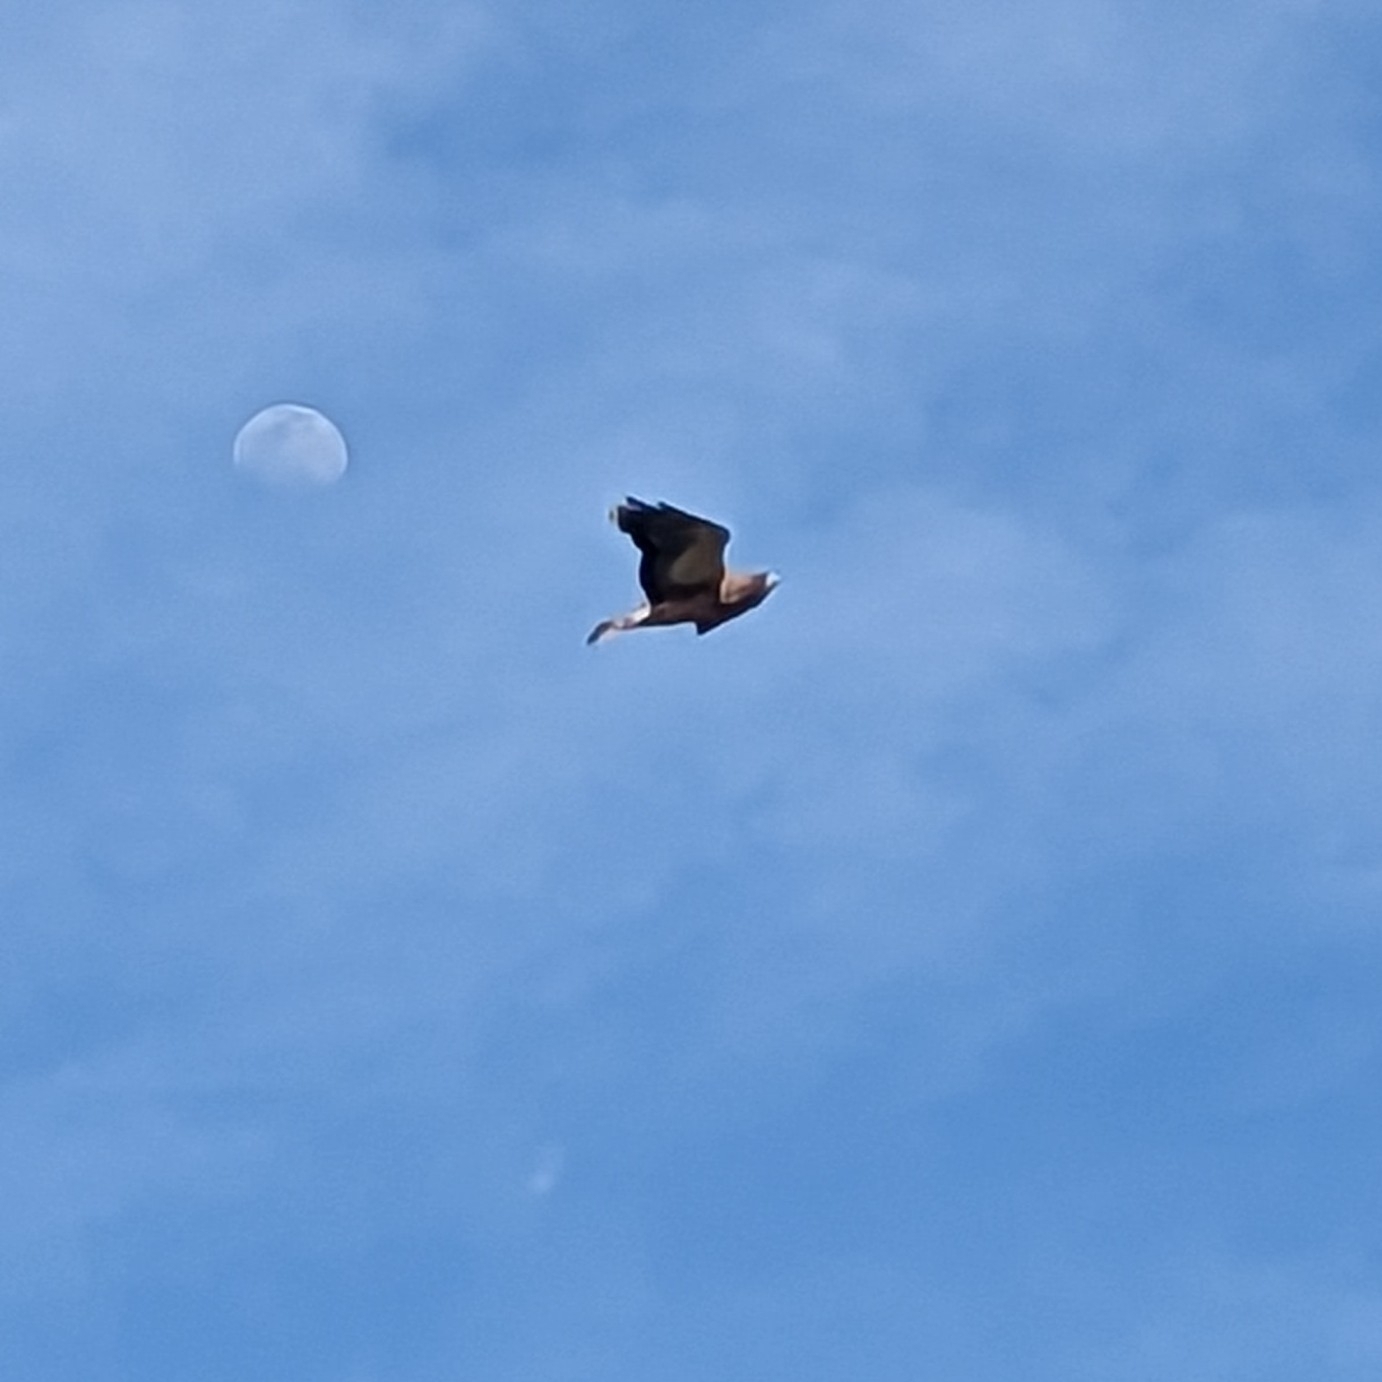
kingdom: Animalia
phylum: Chordata
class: Aves
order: Accipitriformes
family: Accipitridae
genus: Buteo
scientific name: Buteo swainsoni
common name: Swainson's hawk
